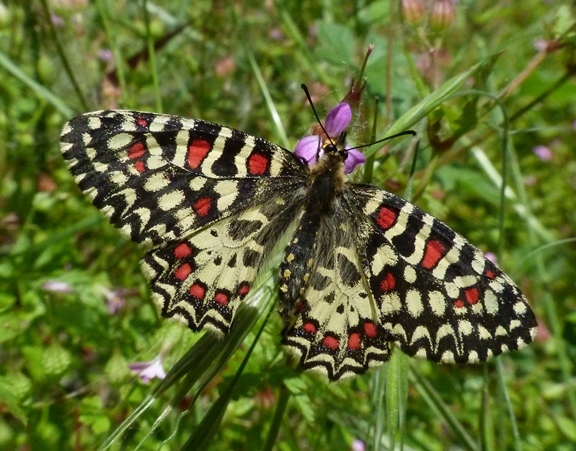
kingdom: Animalia
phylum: Arthropoda
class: Insecta
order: Lepidoptera
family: Papilionidae
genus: Zerynthia
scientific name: Zerynthia rumina
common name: Spanish festoon
